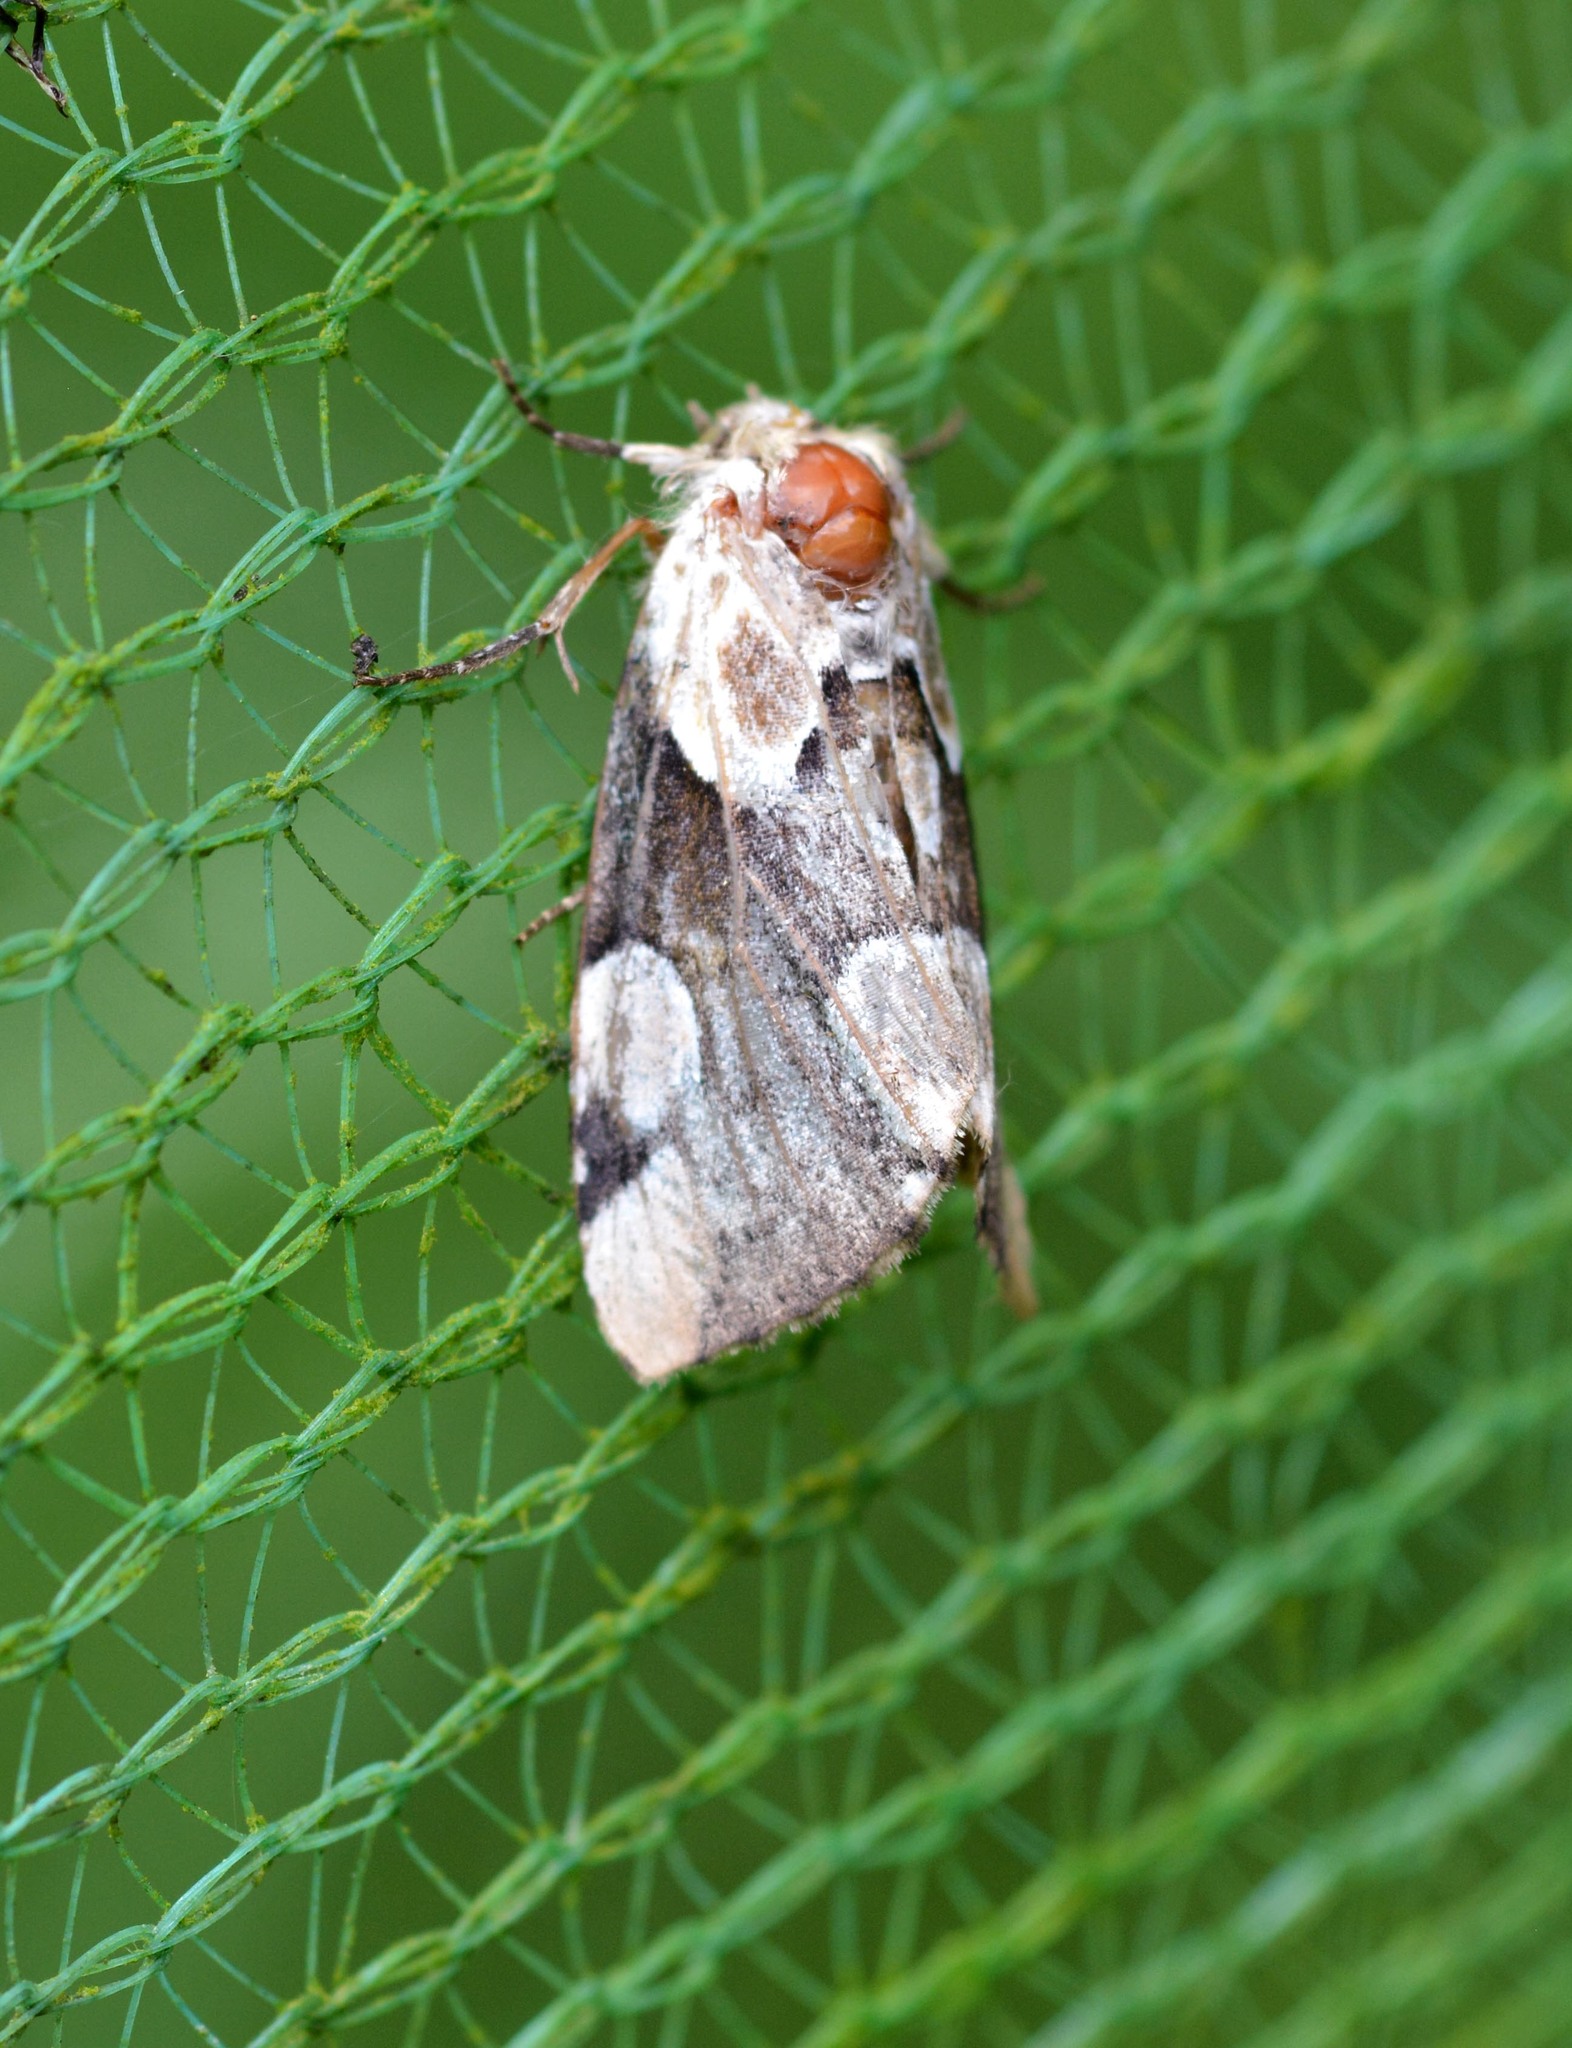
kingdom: Animalia
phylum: Arthropoda
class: Insecta
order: Lepidoptera
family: Drepanidae
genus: Thyatira
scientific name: Thyatira batis
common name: Peach blossom
